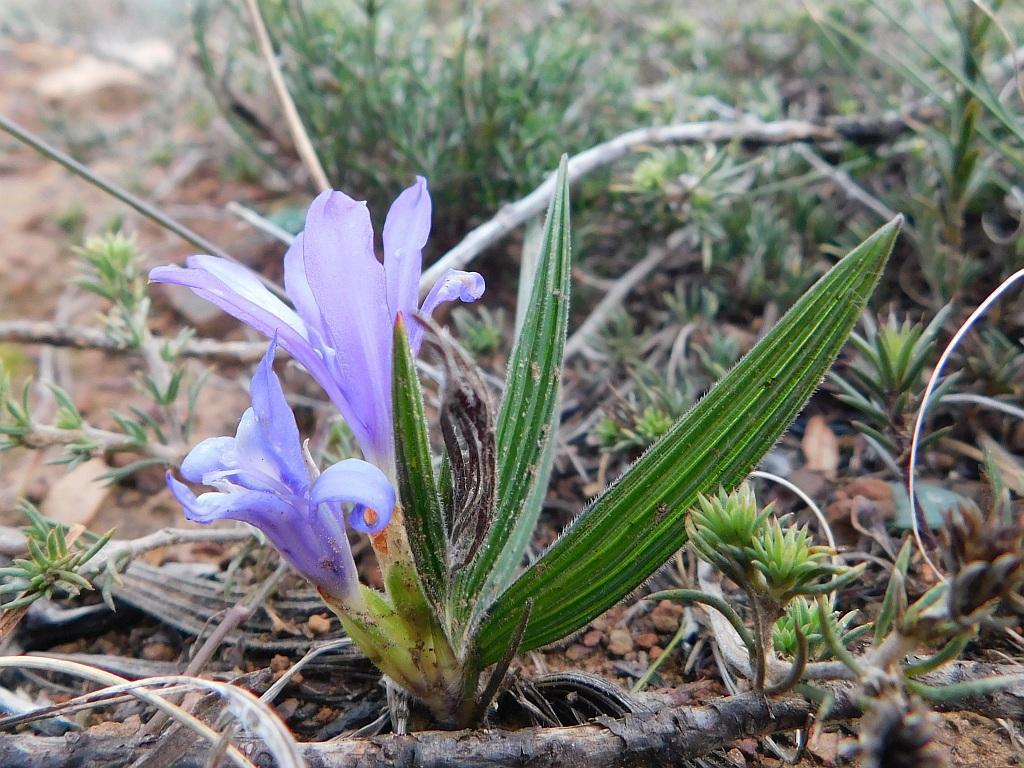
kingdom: Plantae
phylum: Tracheophyta
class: Liliopsida
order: Asparagales
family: Iridaceae
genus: Babiana
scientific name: Babiana ambigua
